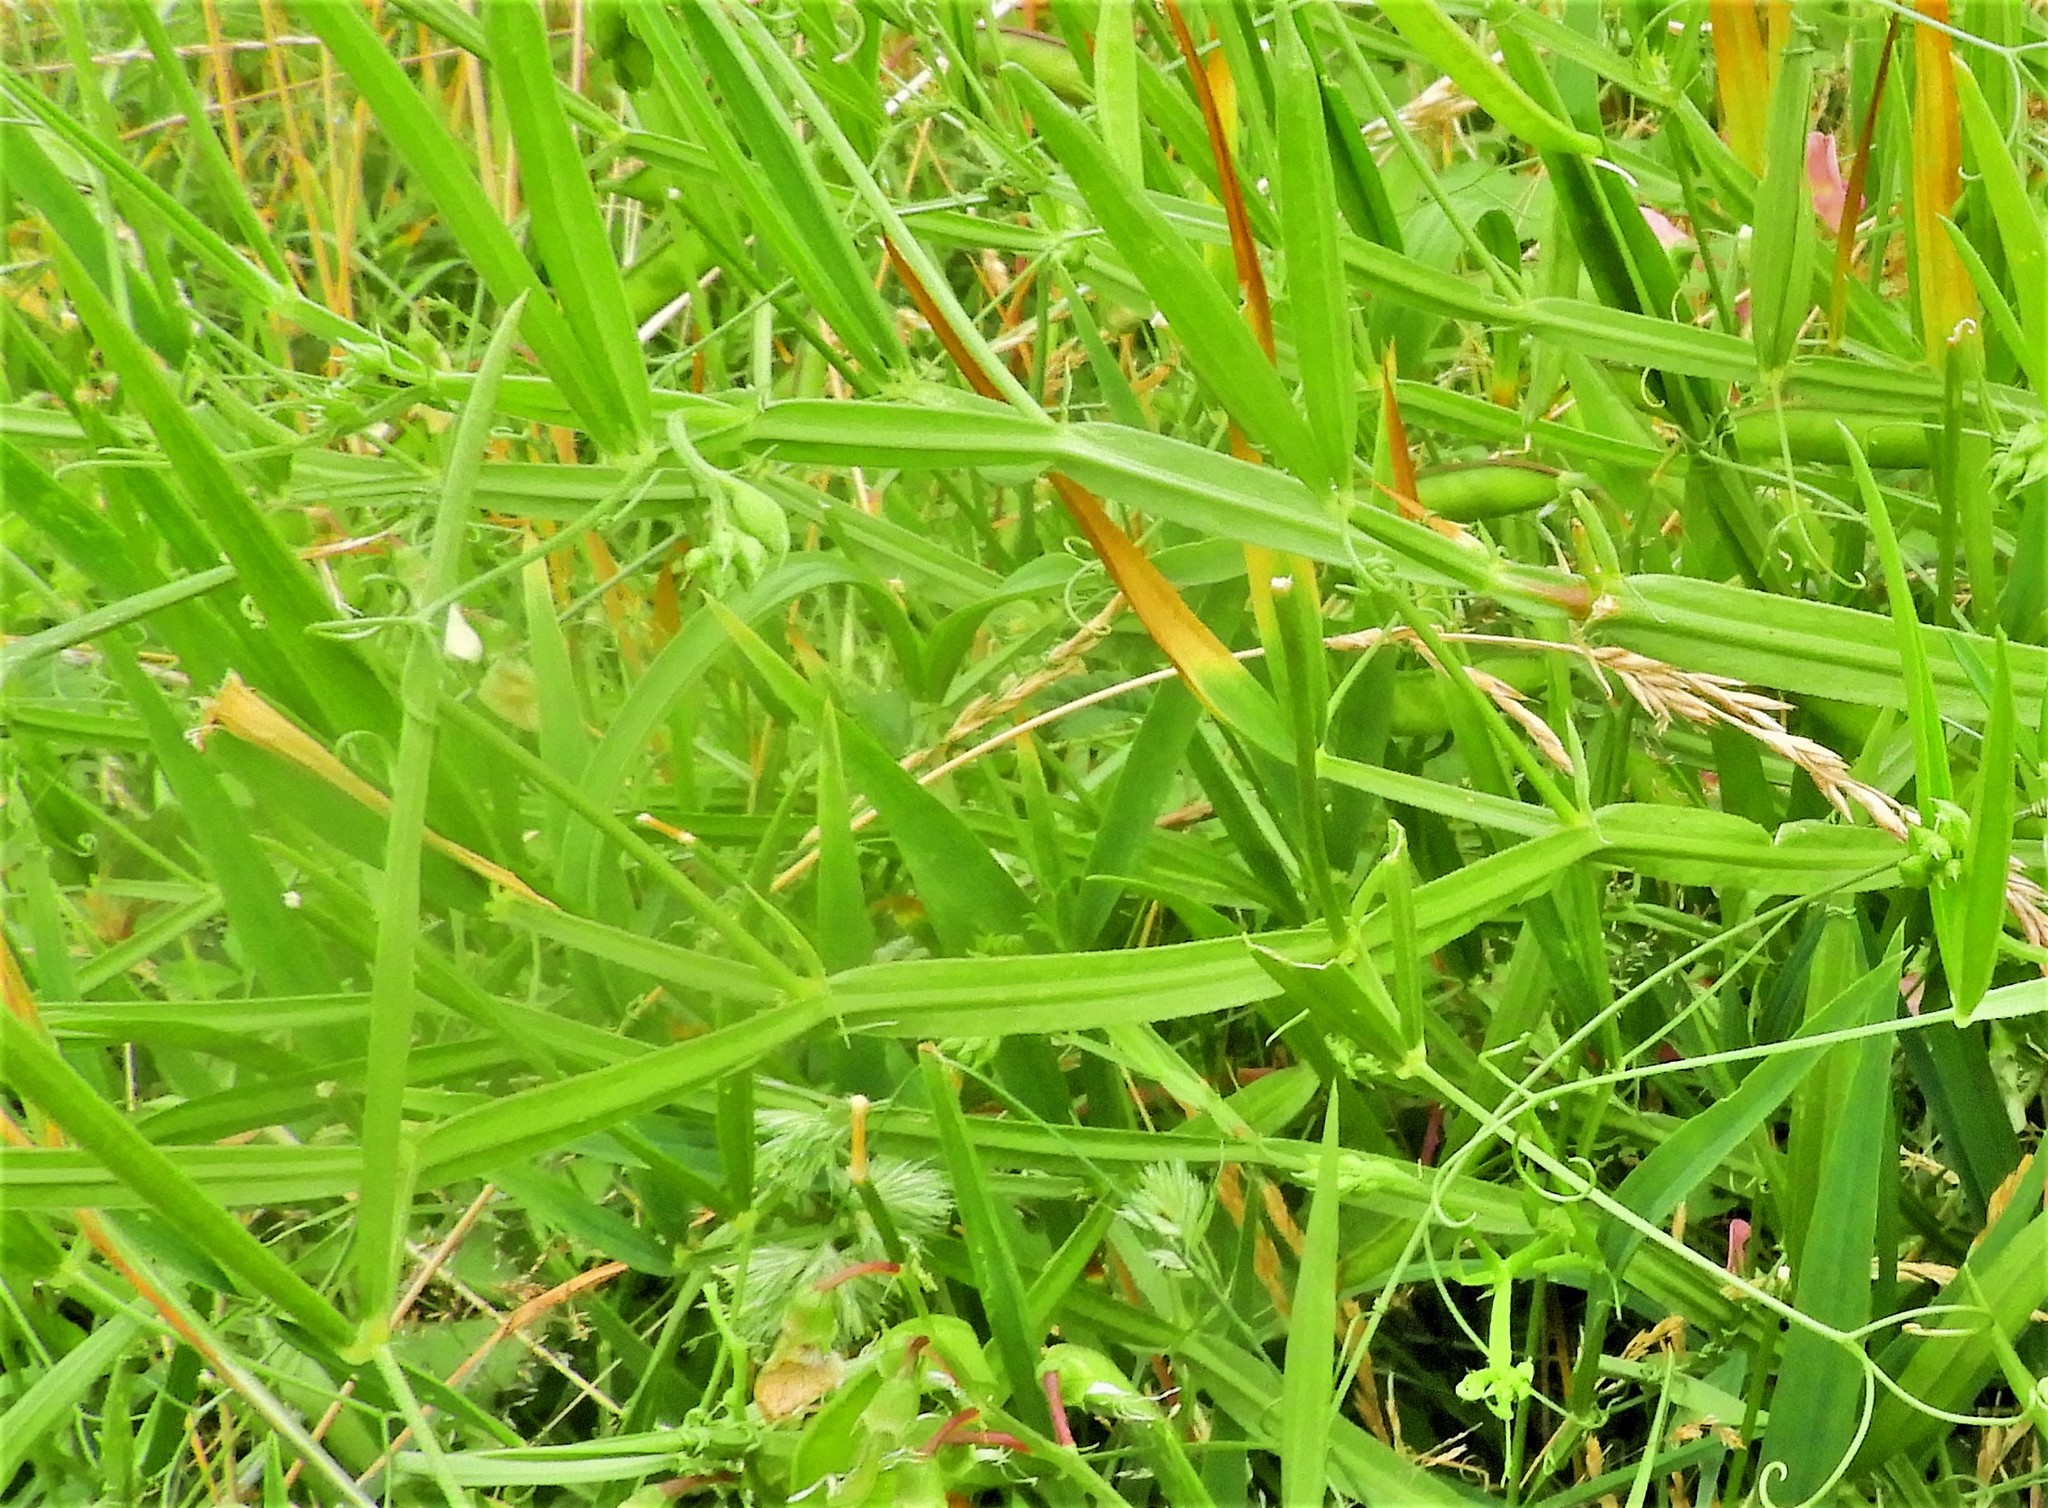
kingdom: Plantae
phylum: Tracheophyta
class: Magnoliopsida
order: Fabales
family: Fabaceae
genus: Lathyrus
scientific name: Lathyrus sylvestris
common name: Flat pea
